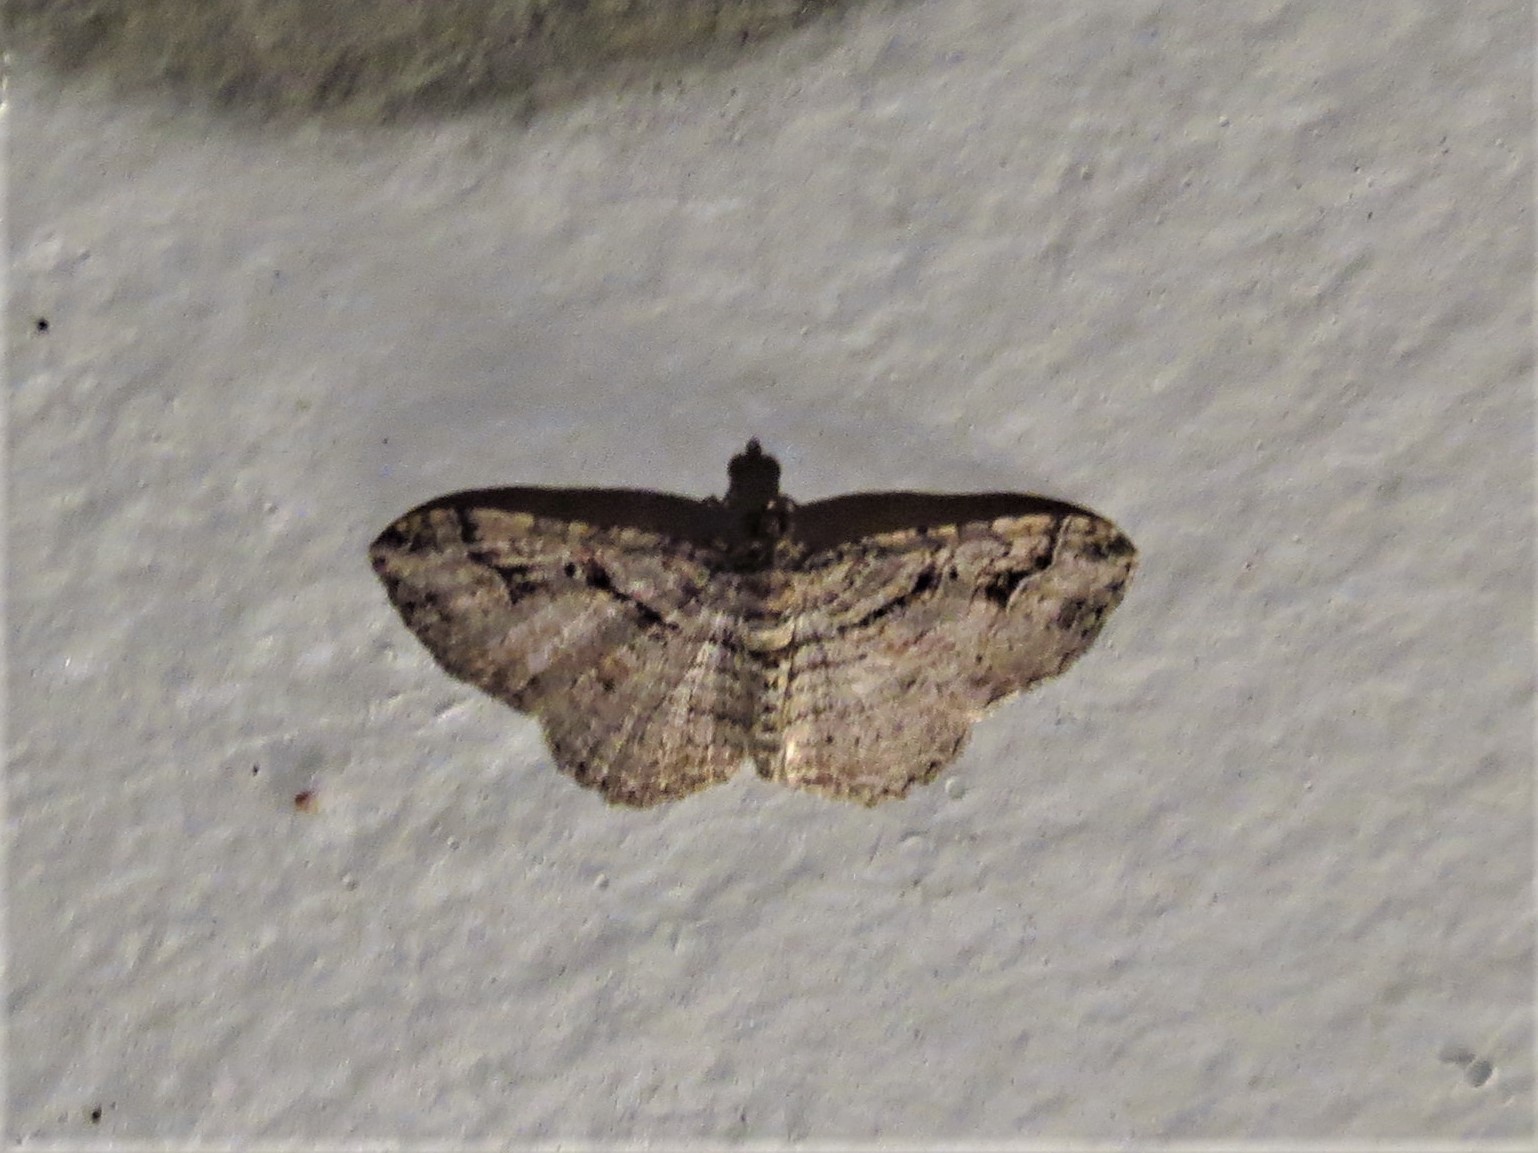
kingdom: Animalia
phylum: Arthropoda
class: Insecta
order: Lepidoptera
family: Geometridae
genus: Costaconvexa
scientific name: Costaconvexa centrostrigaria
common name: Bent-line carpet
